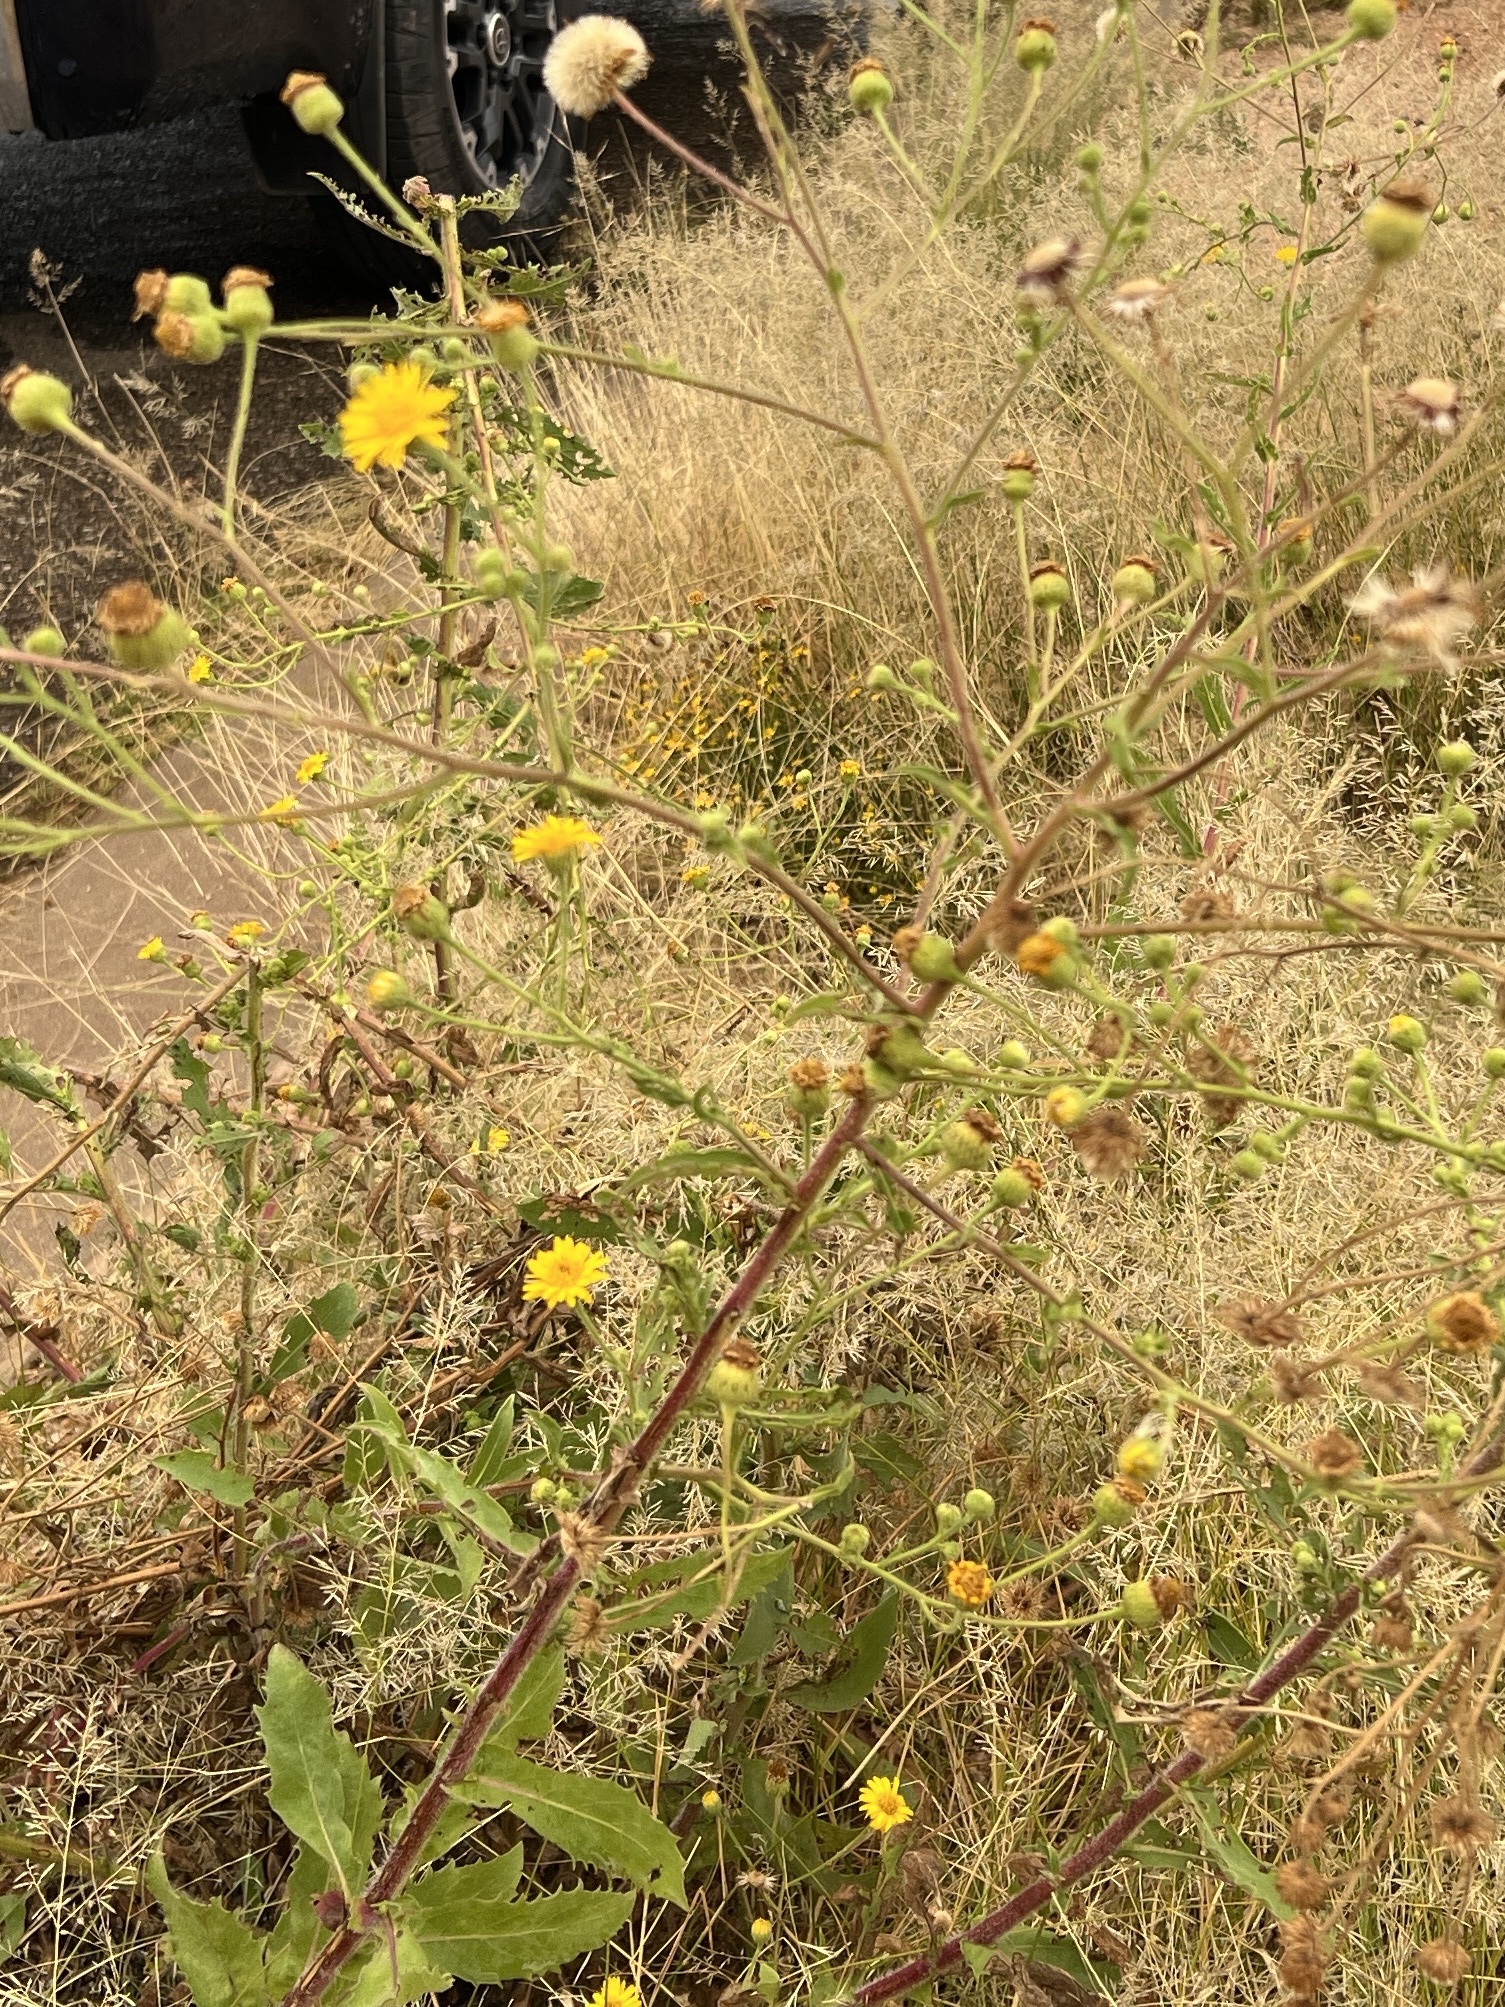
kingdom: Plantae
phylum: Tracheophyta
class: Magnoliopsida
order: Asterales
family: Asteraceae
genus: Heterotheca
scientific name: Heterotheca subaxillaris
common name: Camphorweed
